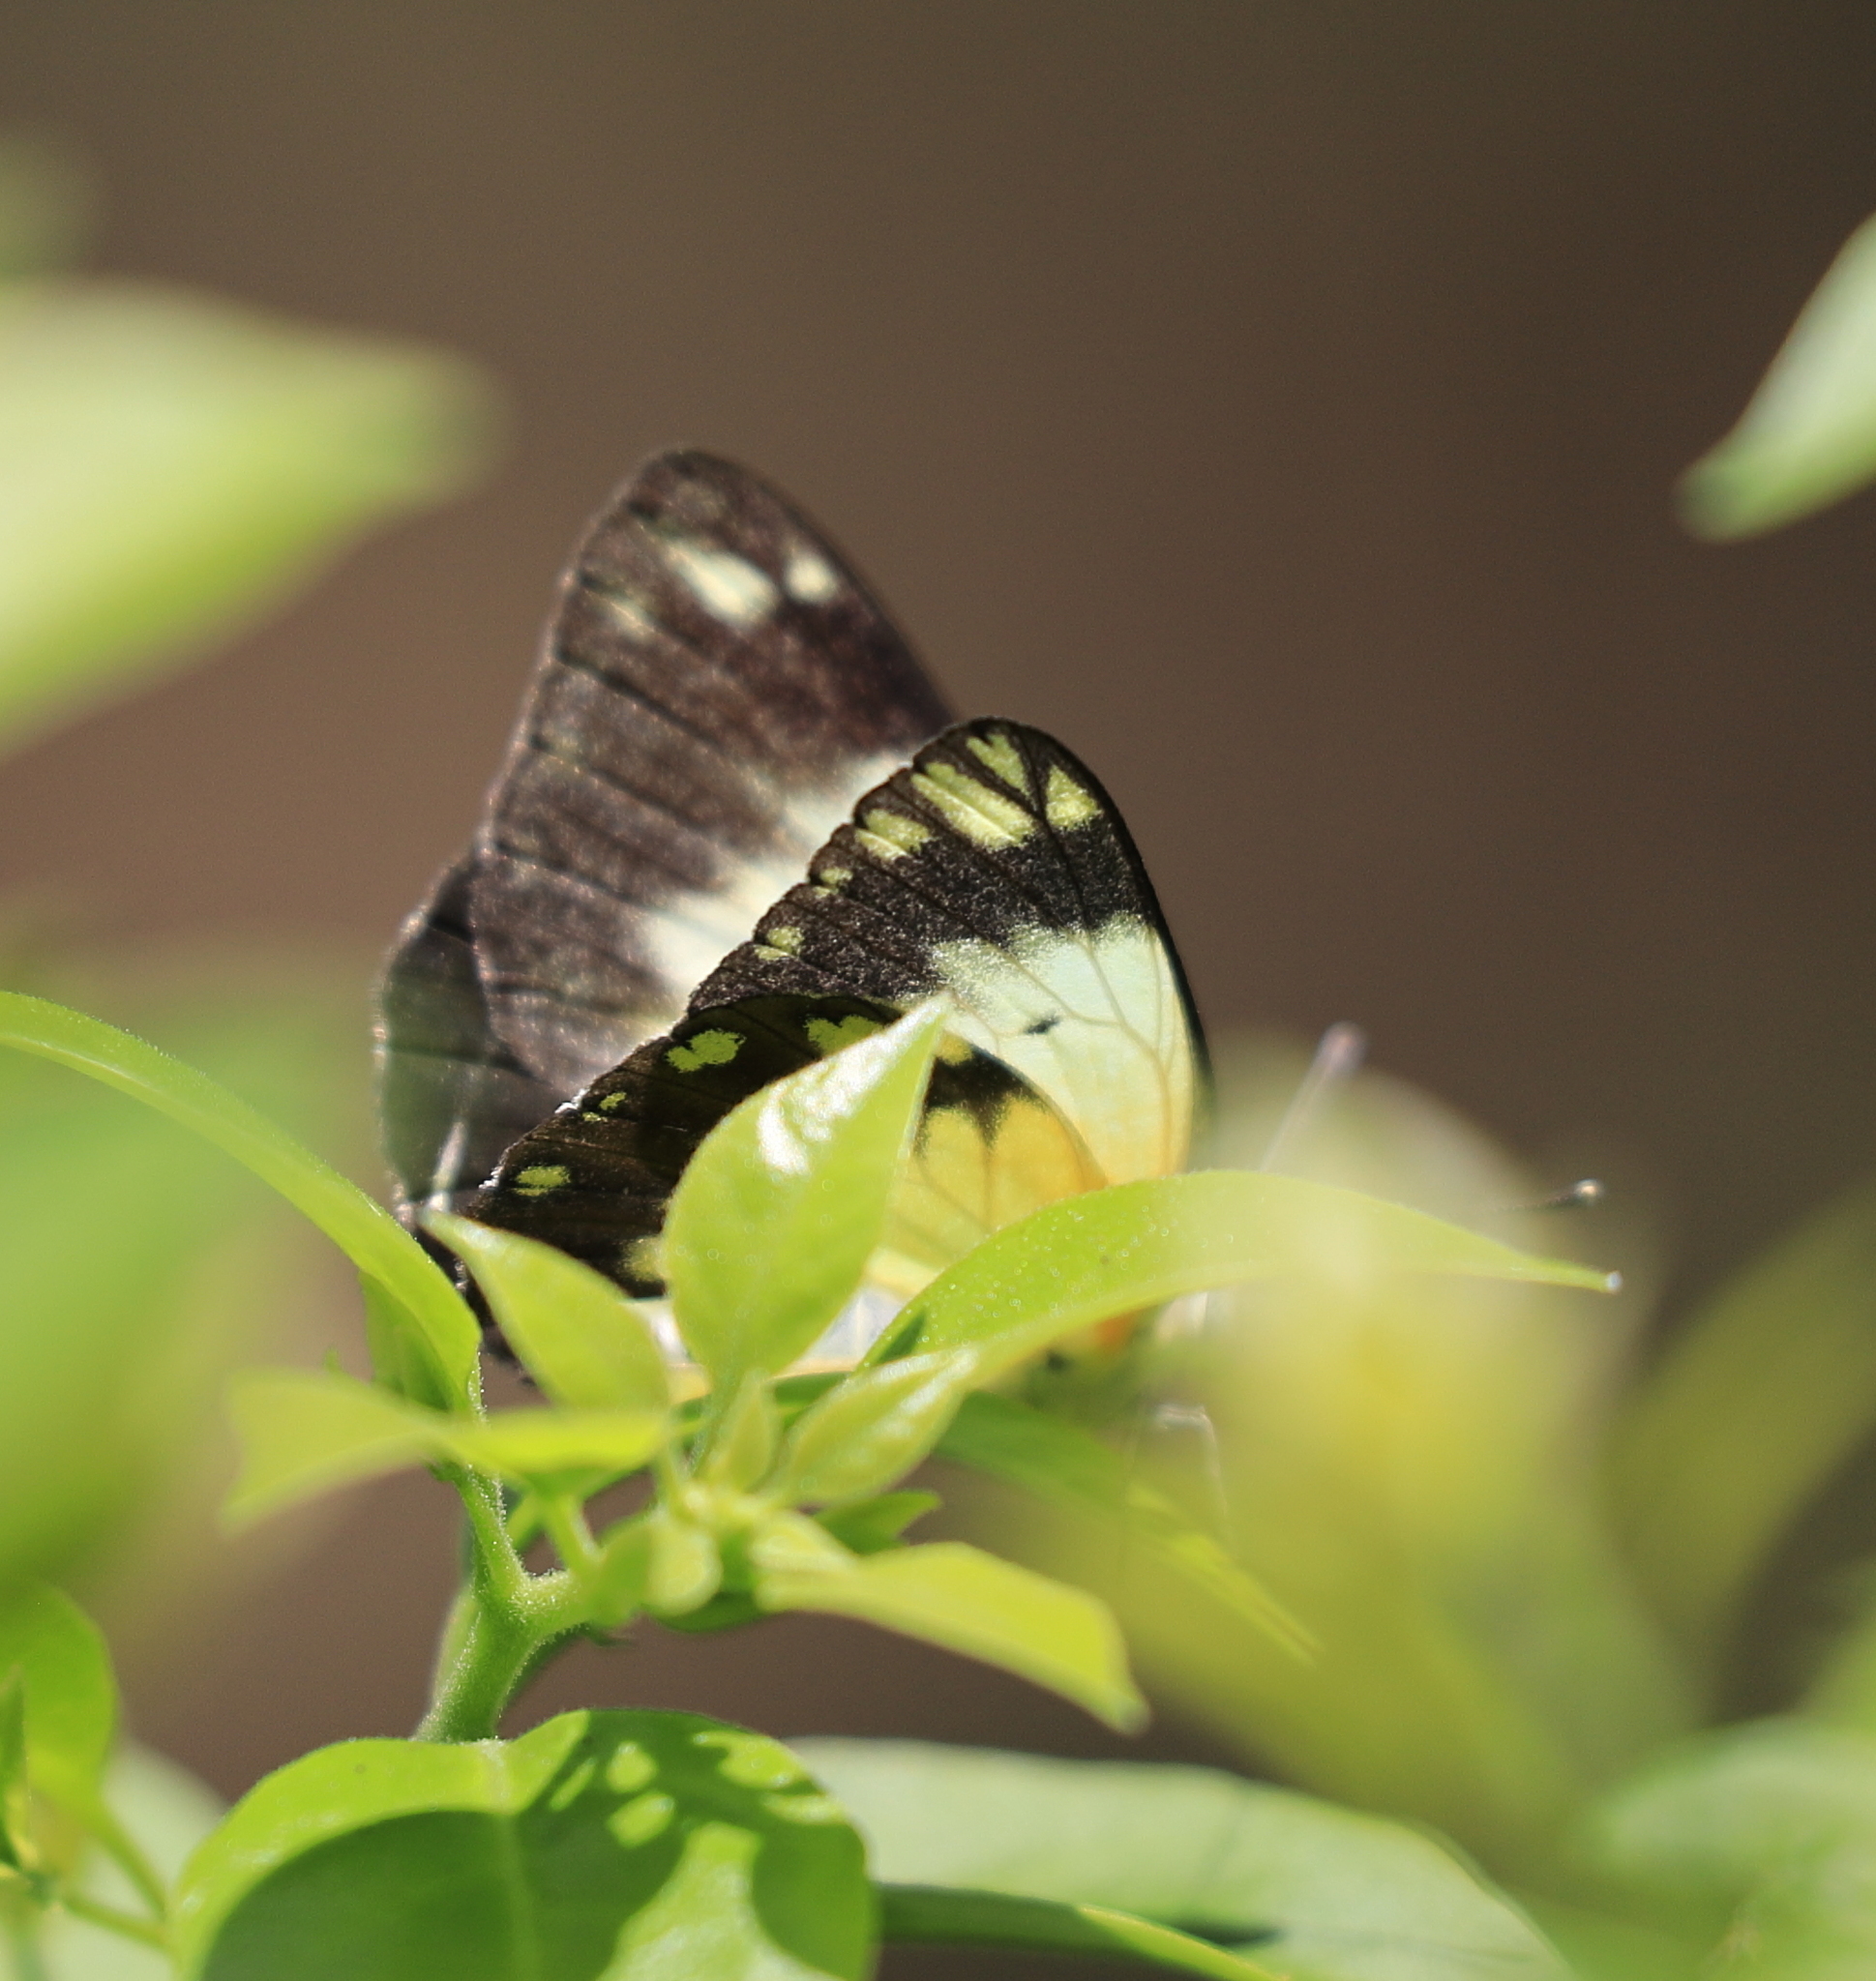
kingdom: Animalia
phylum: Arthropoda
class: Insecta
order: Lepidoptera
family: Pieridae
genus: Belenois
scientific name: Belenois creona
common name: African caper white
